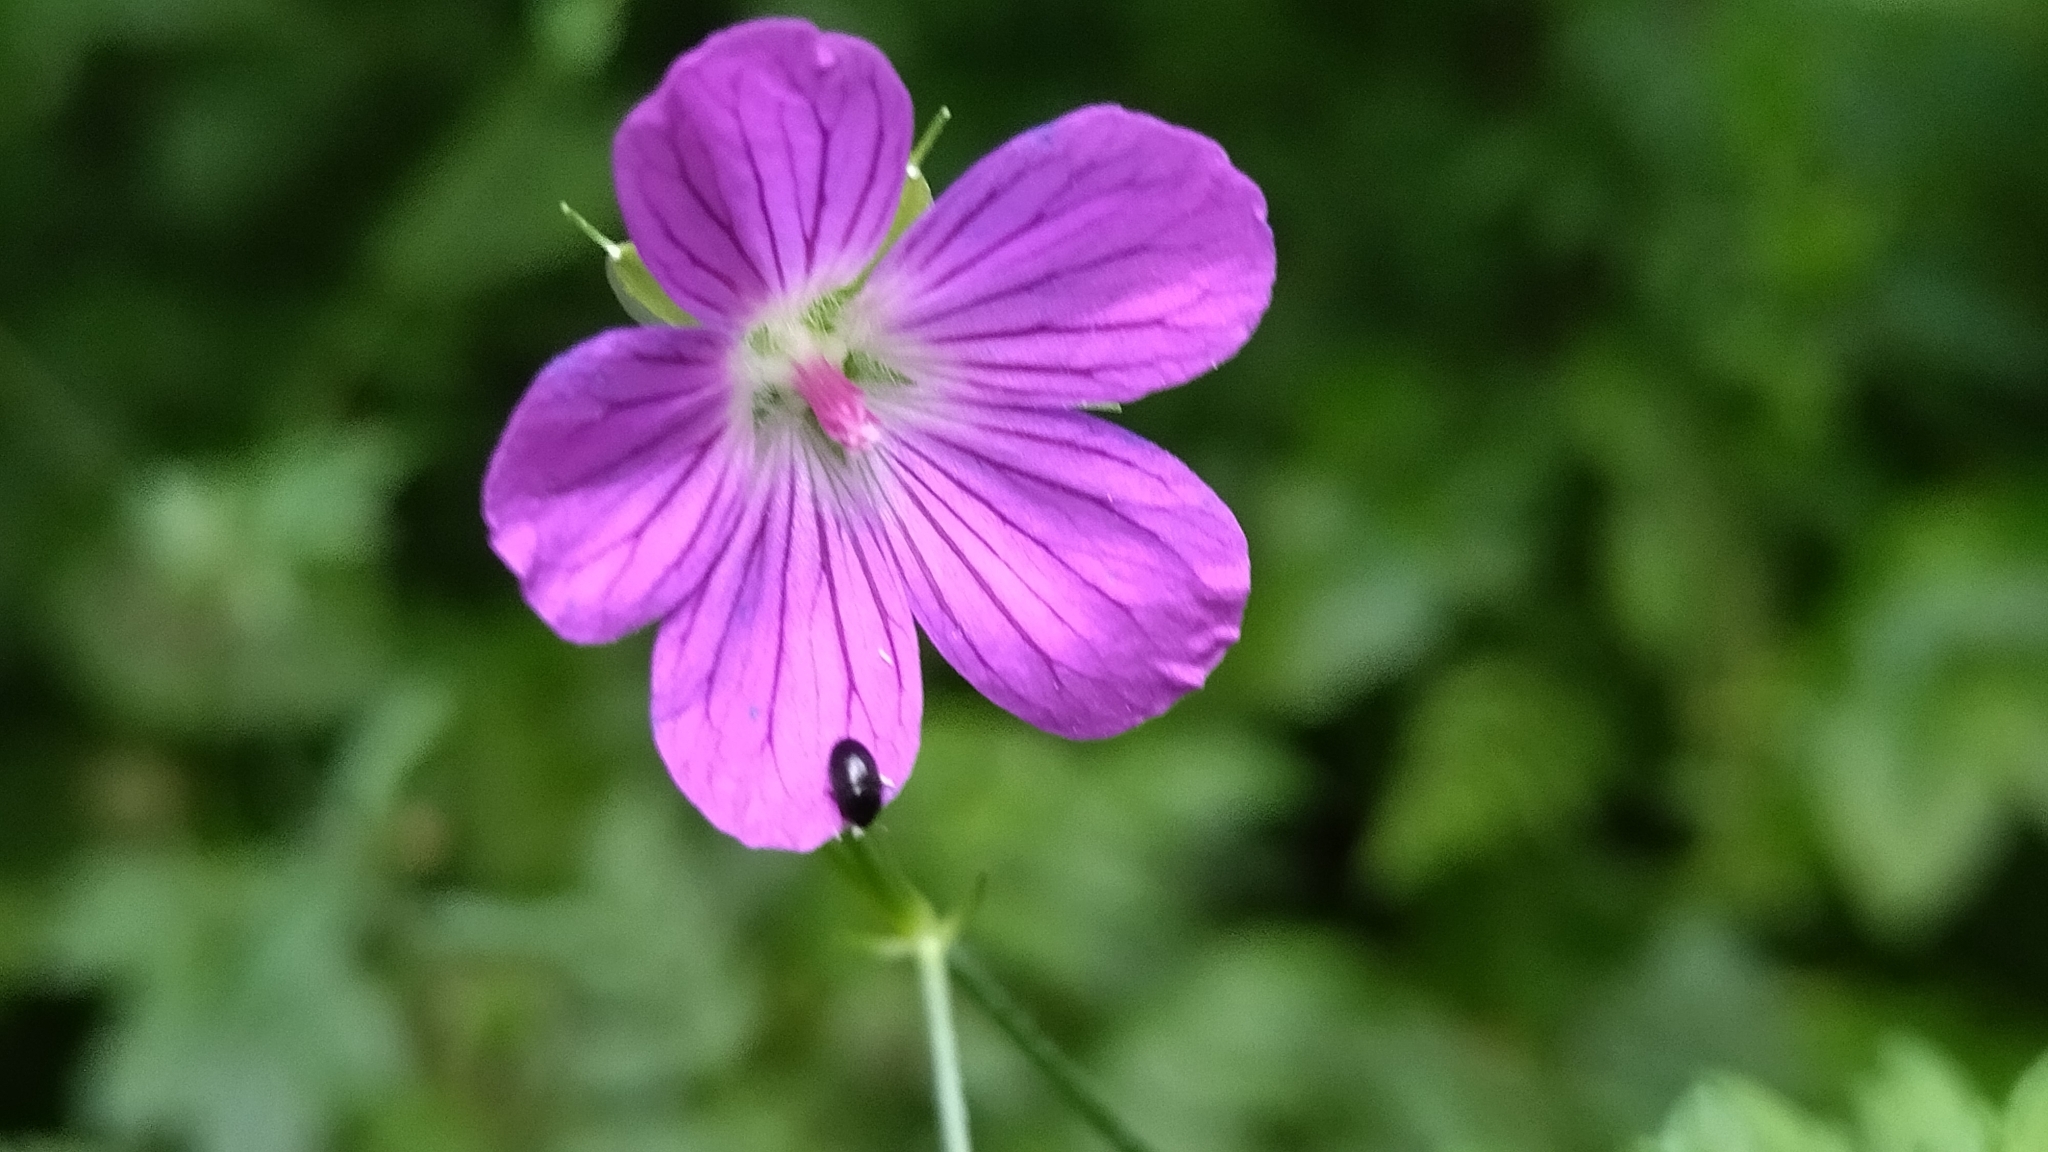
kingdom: Plantae
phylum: Tracheophyta
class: Magnoliopsida
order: Geraniales
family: Geraniaceae
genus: Geranium
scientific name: Geranium palustre
